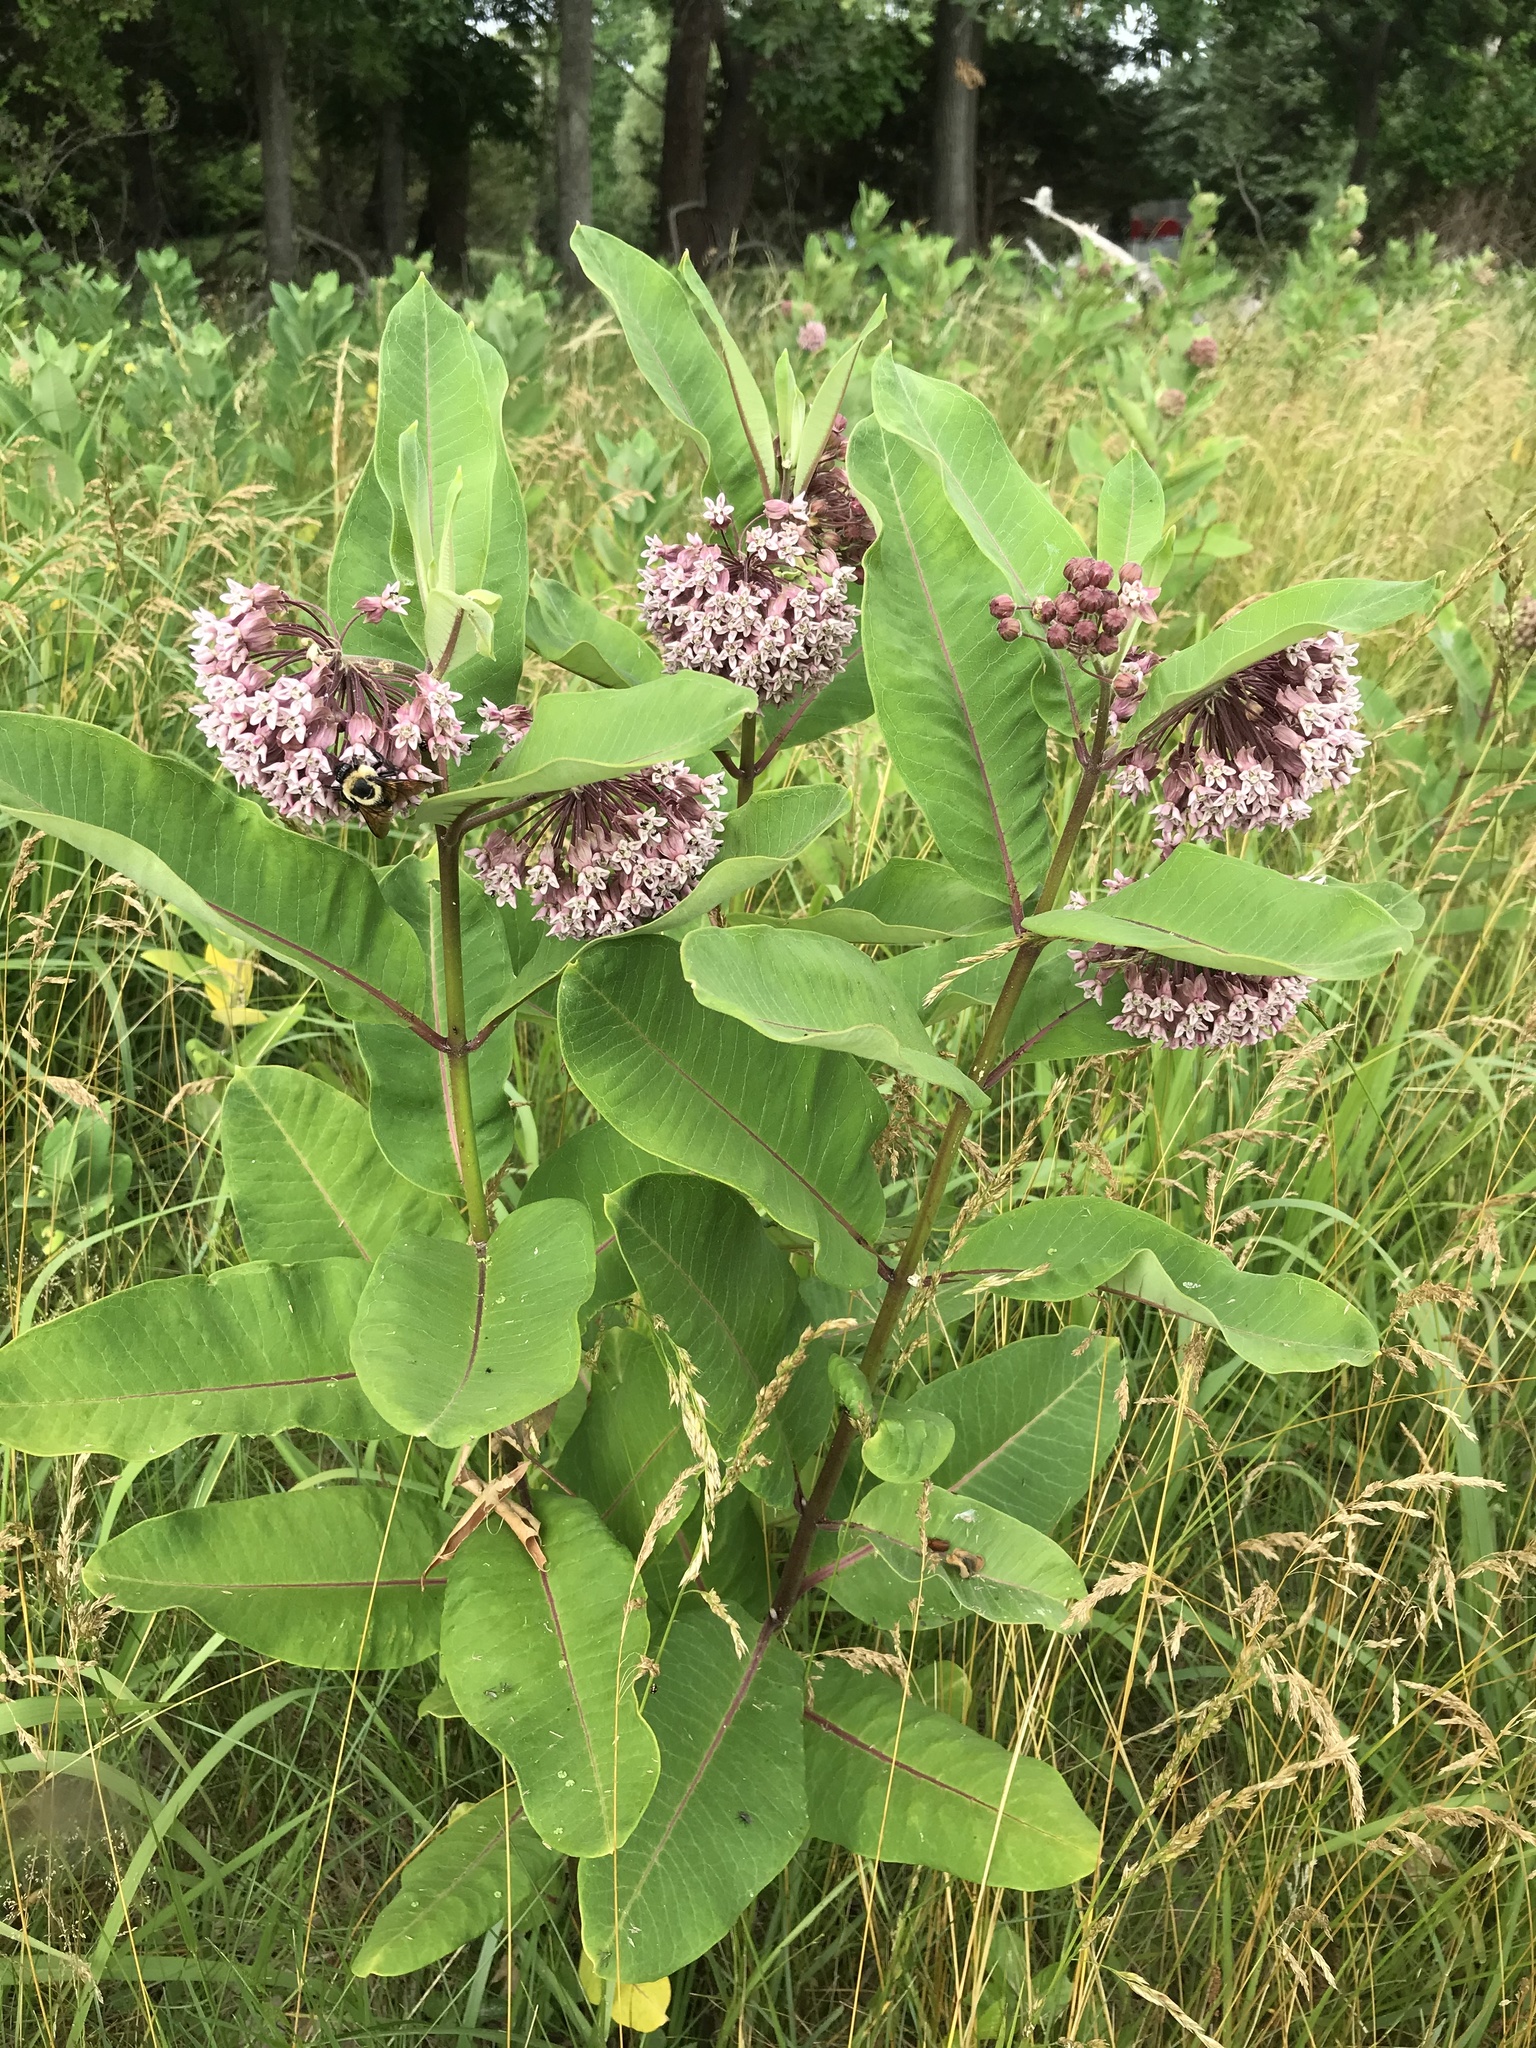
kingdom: Plantae
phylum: Tracheophyta
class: Magnoliopsida
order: Gentianales
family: Apocynaceae
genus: Asclepias
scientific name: Asclepias syriaca
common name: Common milkweed
